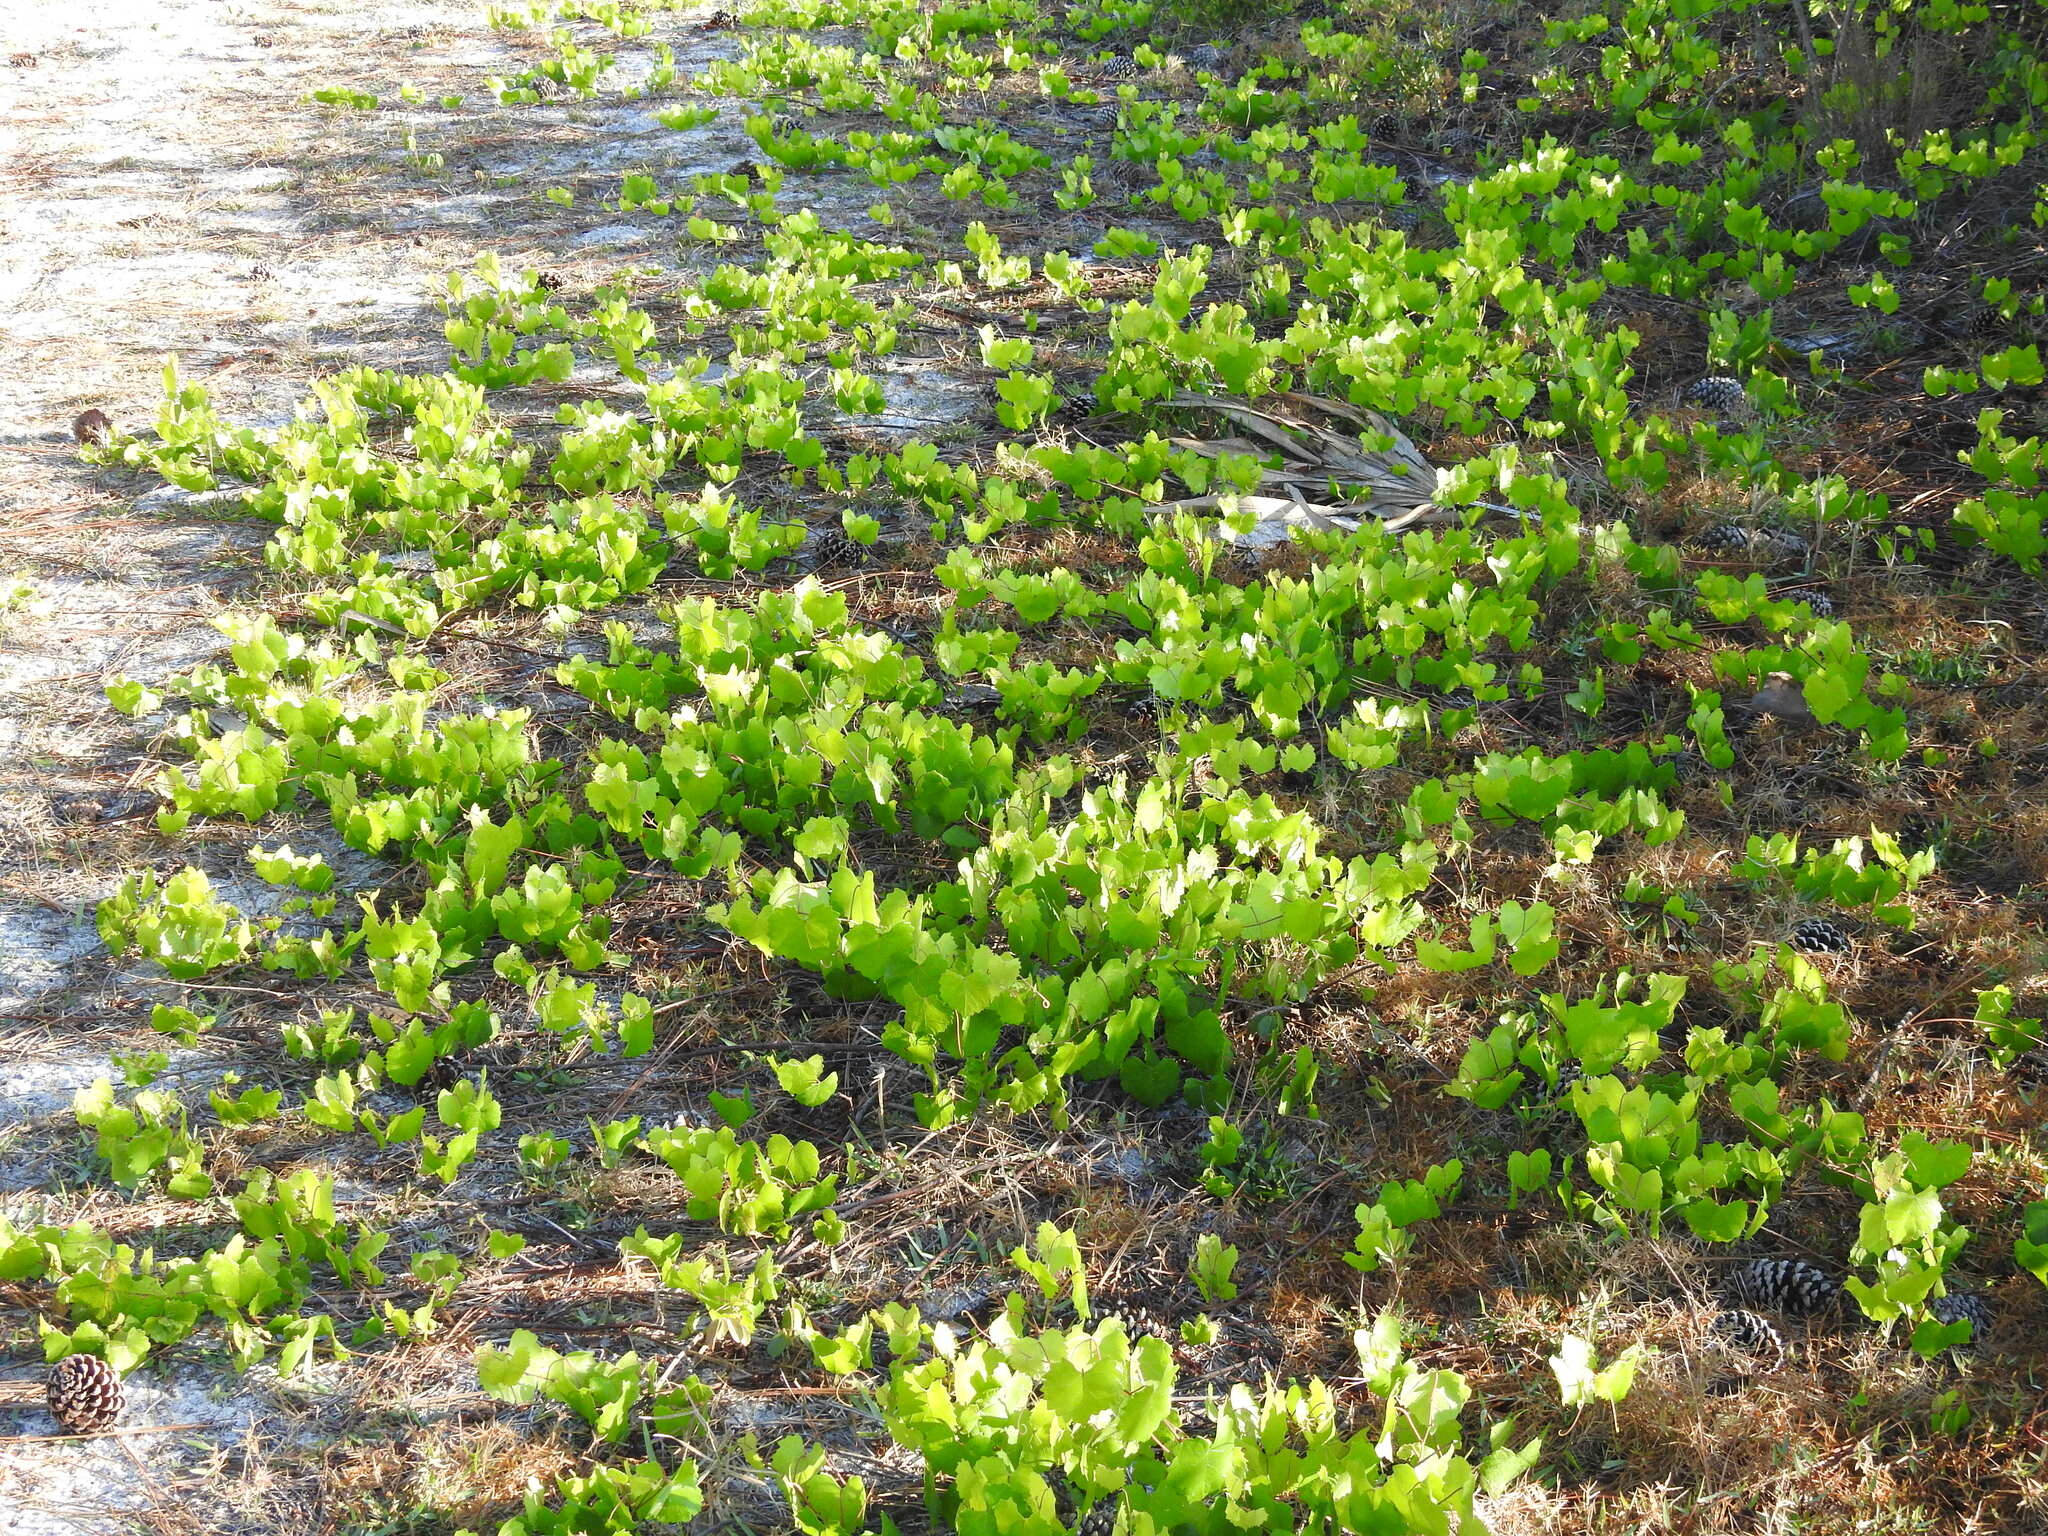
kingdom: Plantae
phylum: Tracheophyta
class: Magnoliopsida
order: Vitales
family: Vitaceae
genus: Vitis
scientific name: Vitis rotundifolia
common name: Muscadine grape
